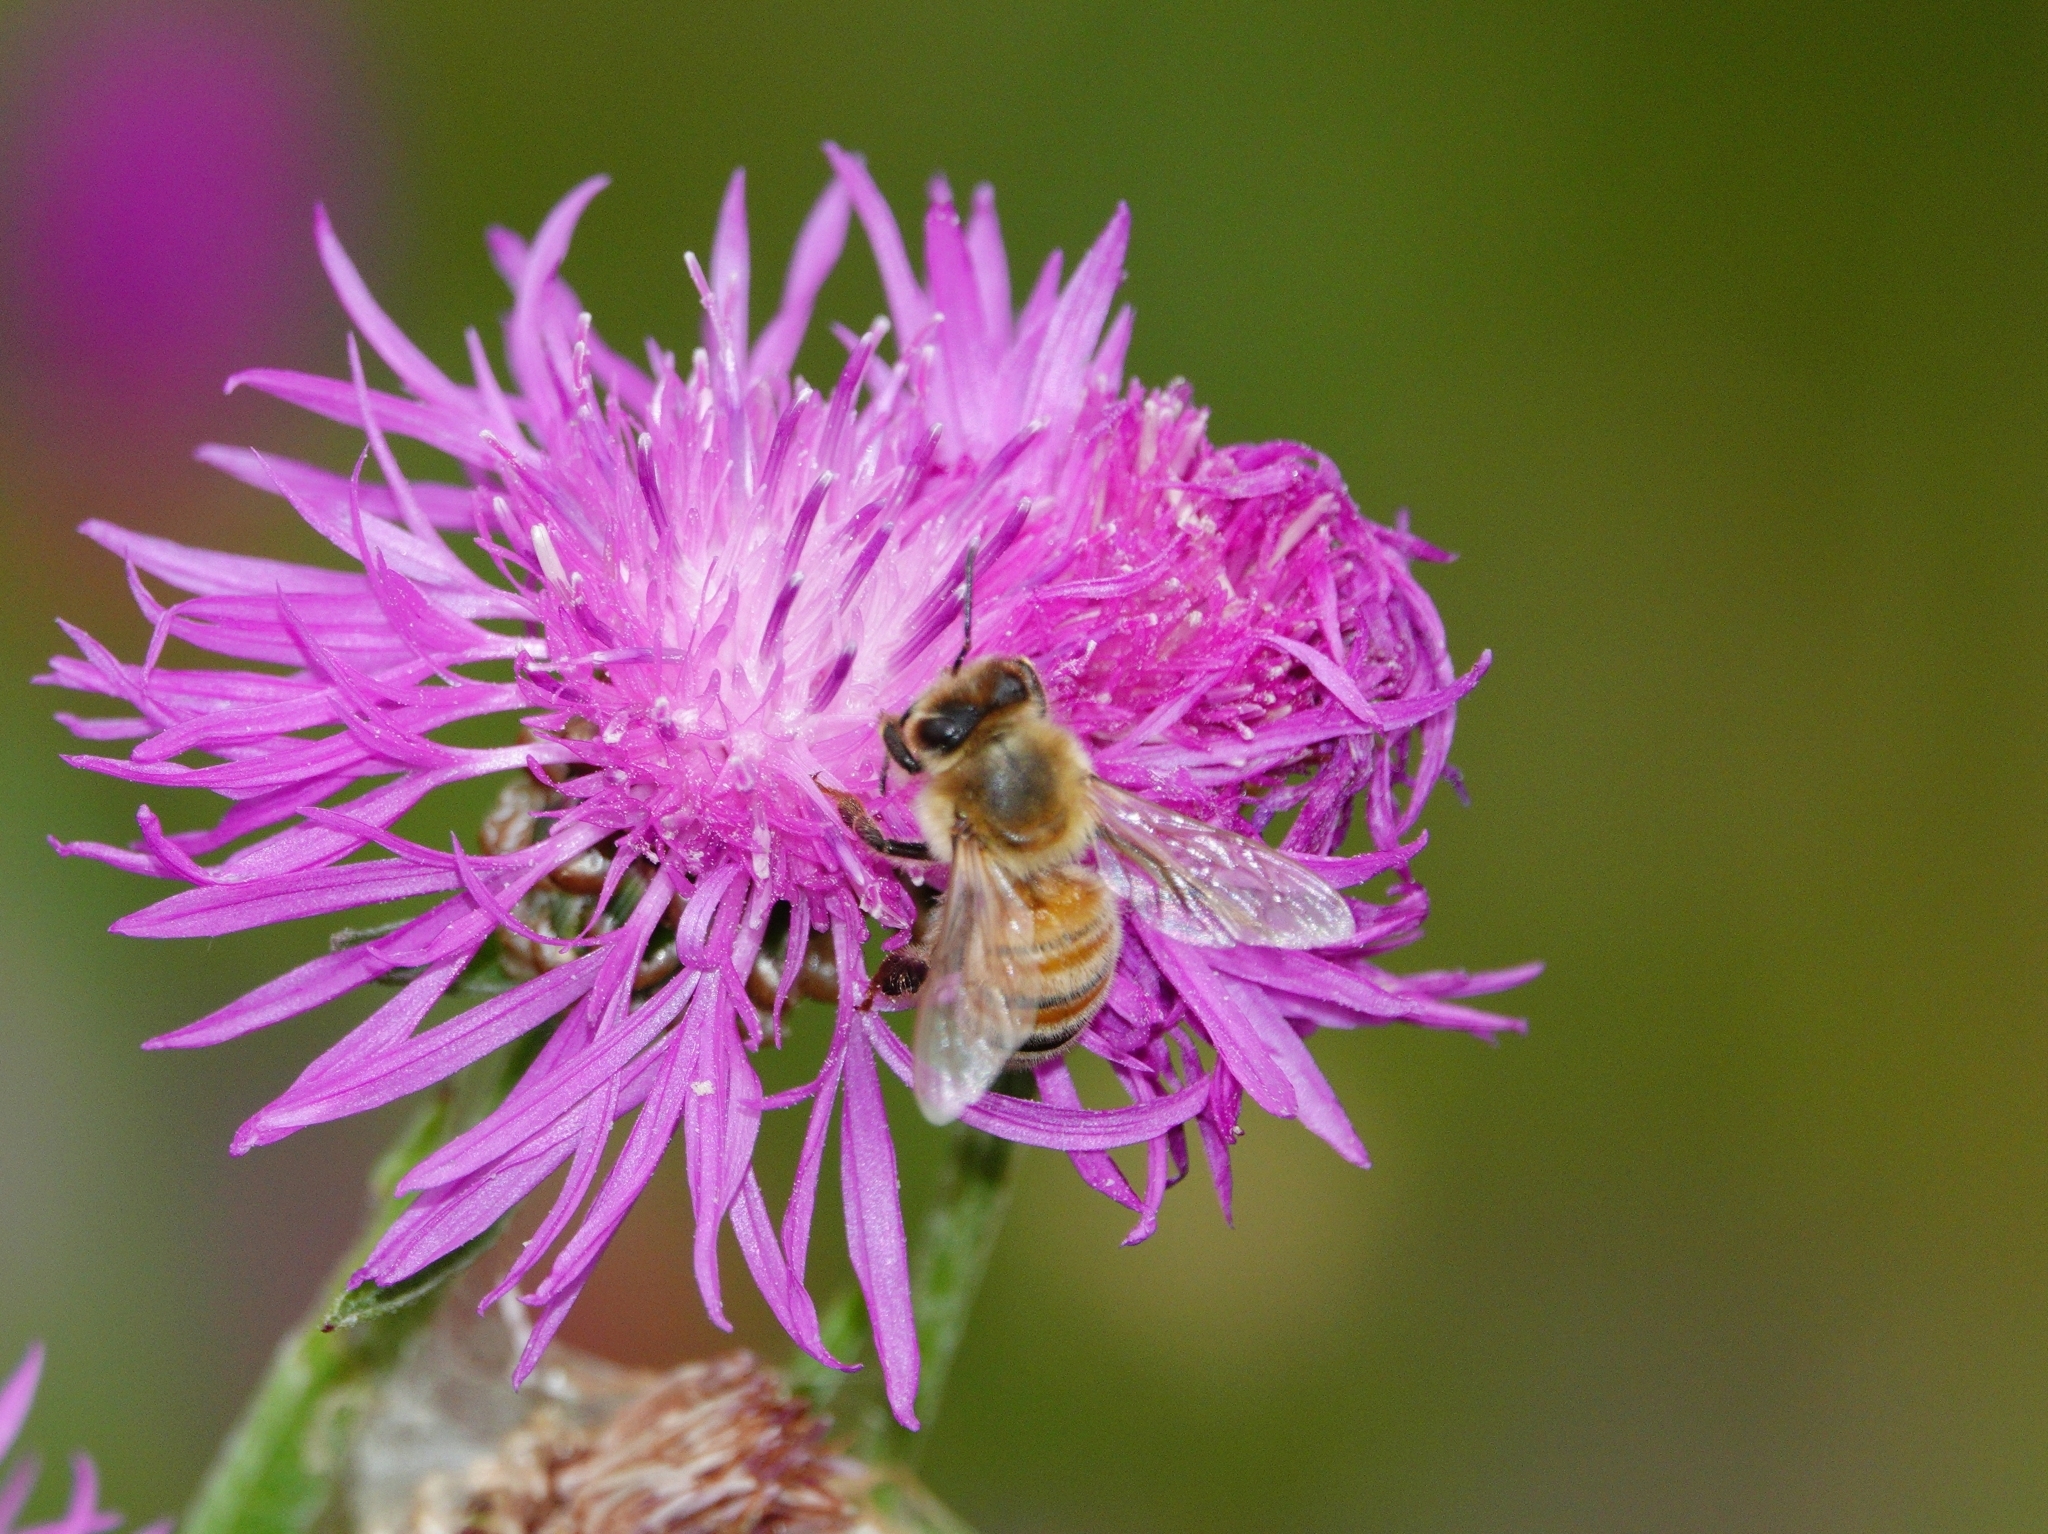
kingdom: Animalia
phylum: Arthropoda
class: Insecta
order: Hymenoptera
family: Apidae
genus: Apis
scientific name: Apis mellifera
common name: Honey bee
